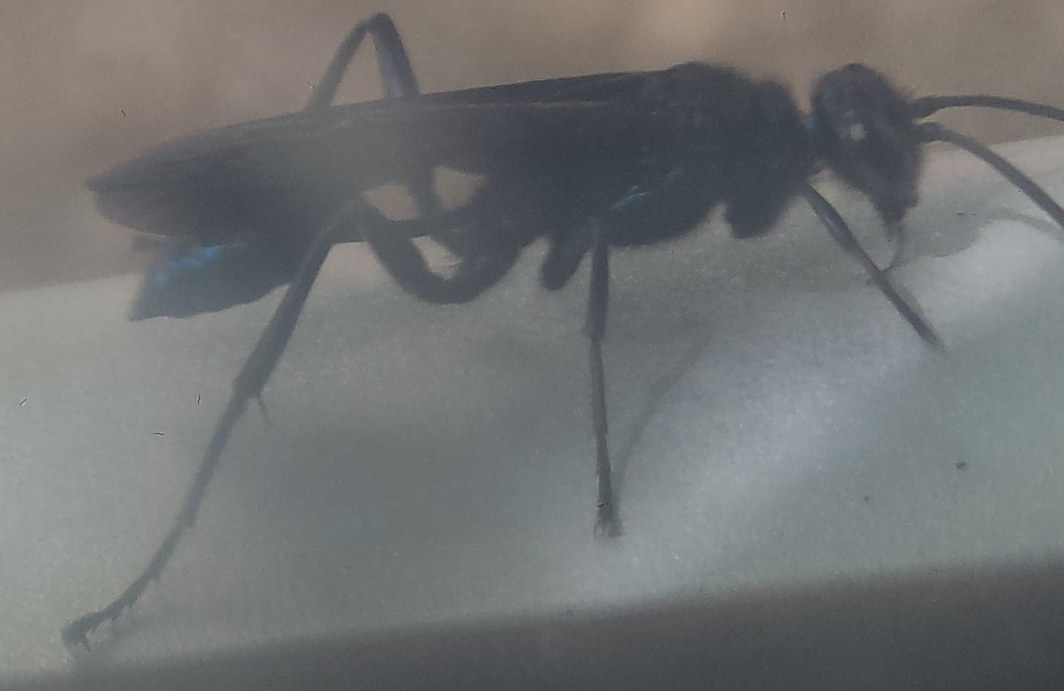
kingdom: Animalia
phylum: Arthropoda
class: Insecta
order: Hymenoptera
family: Sphecidae
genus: Chalybion
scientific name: Chalybion californicum
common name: Mud dauber
